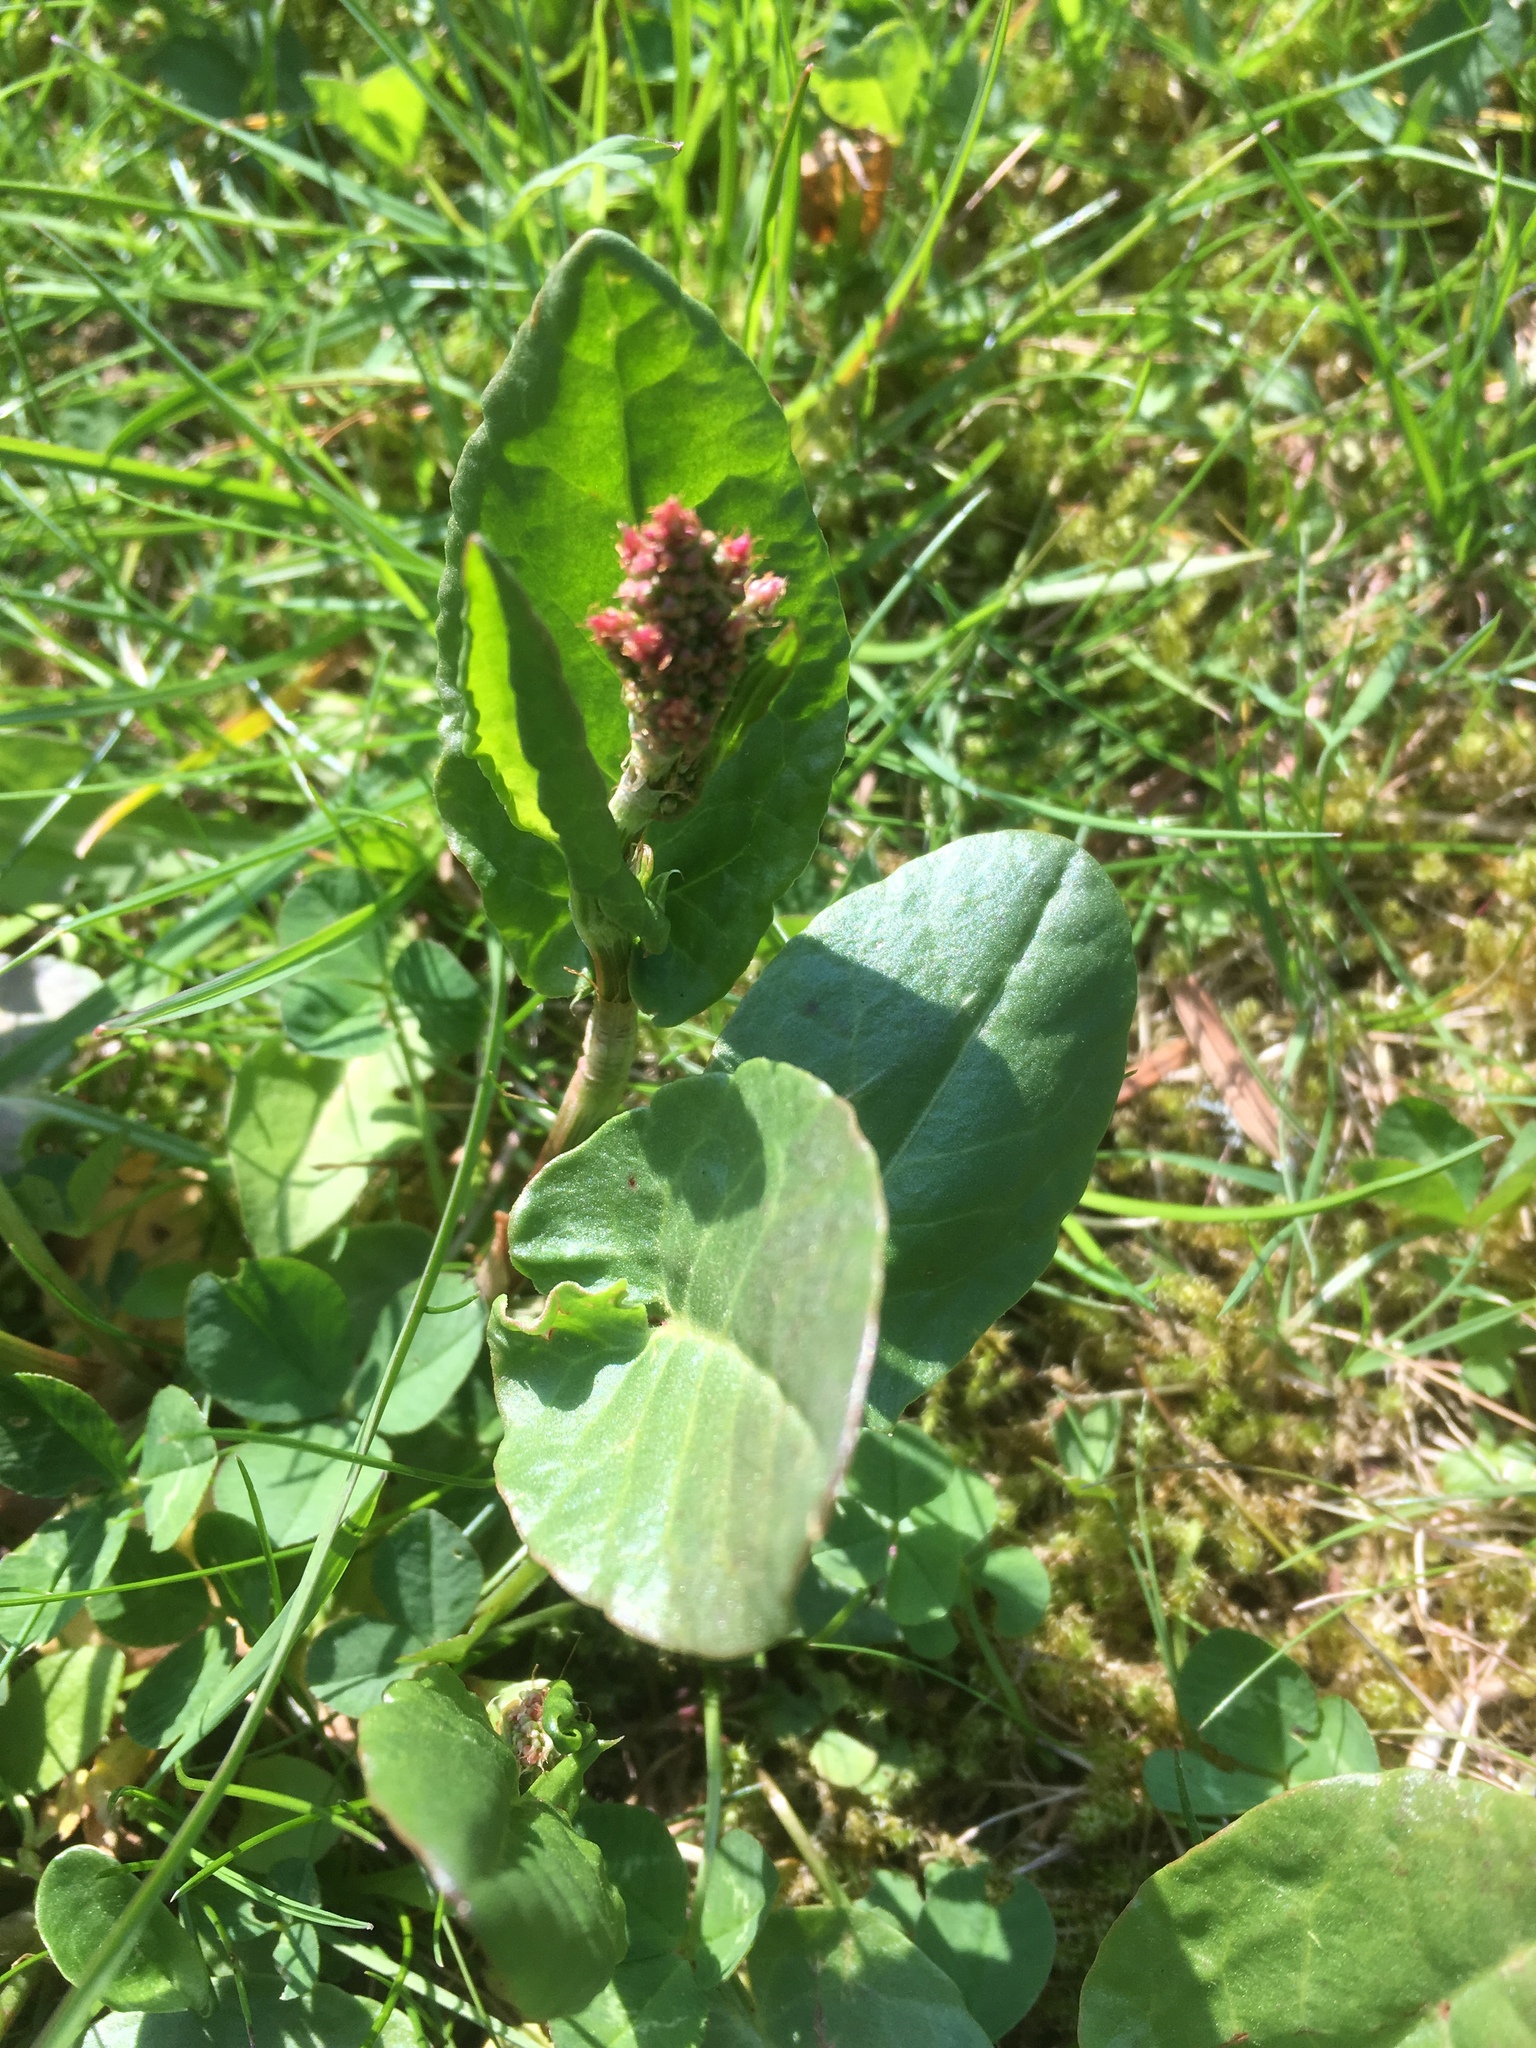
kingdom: Plantae
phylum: Tracheophyta
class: Magnoliopsida
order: Caryophyllales
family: Polygonaceae
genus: Rumex
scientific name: Rumex acetosa
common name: Garden sorrel
